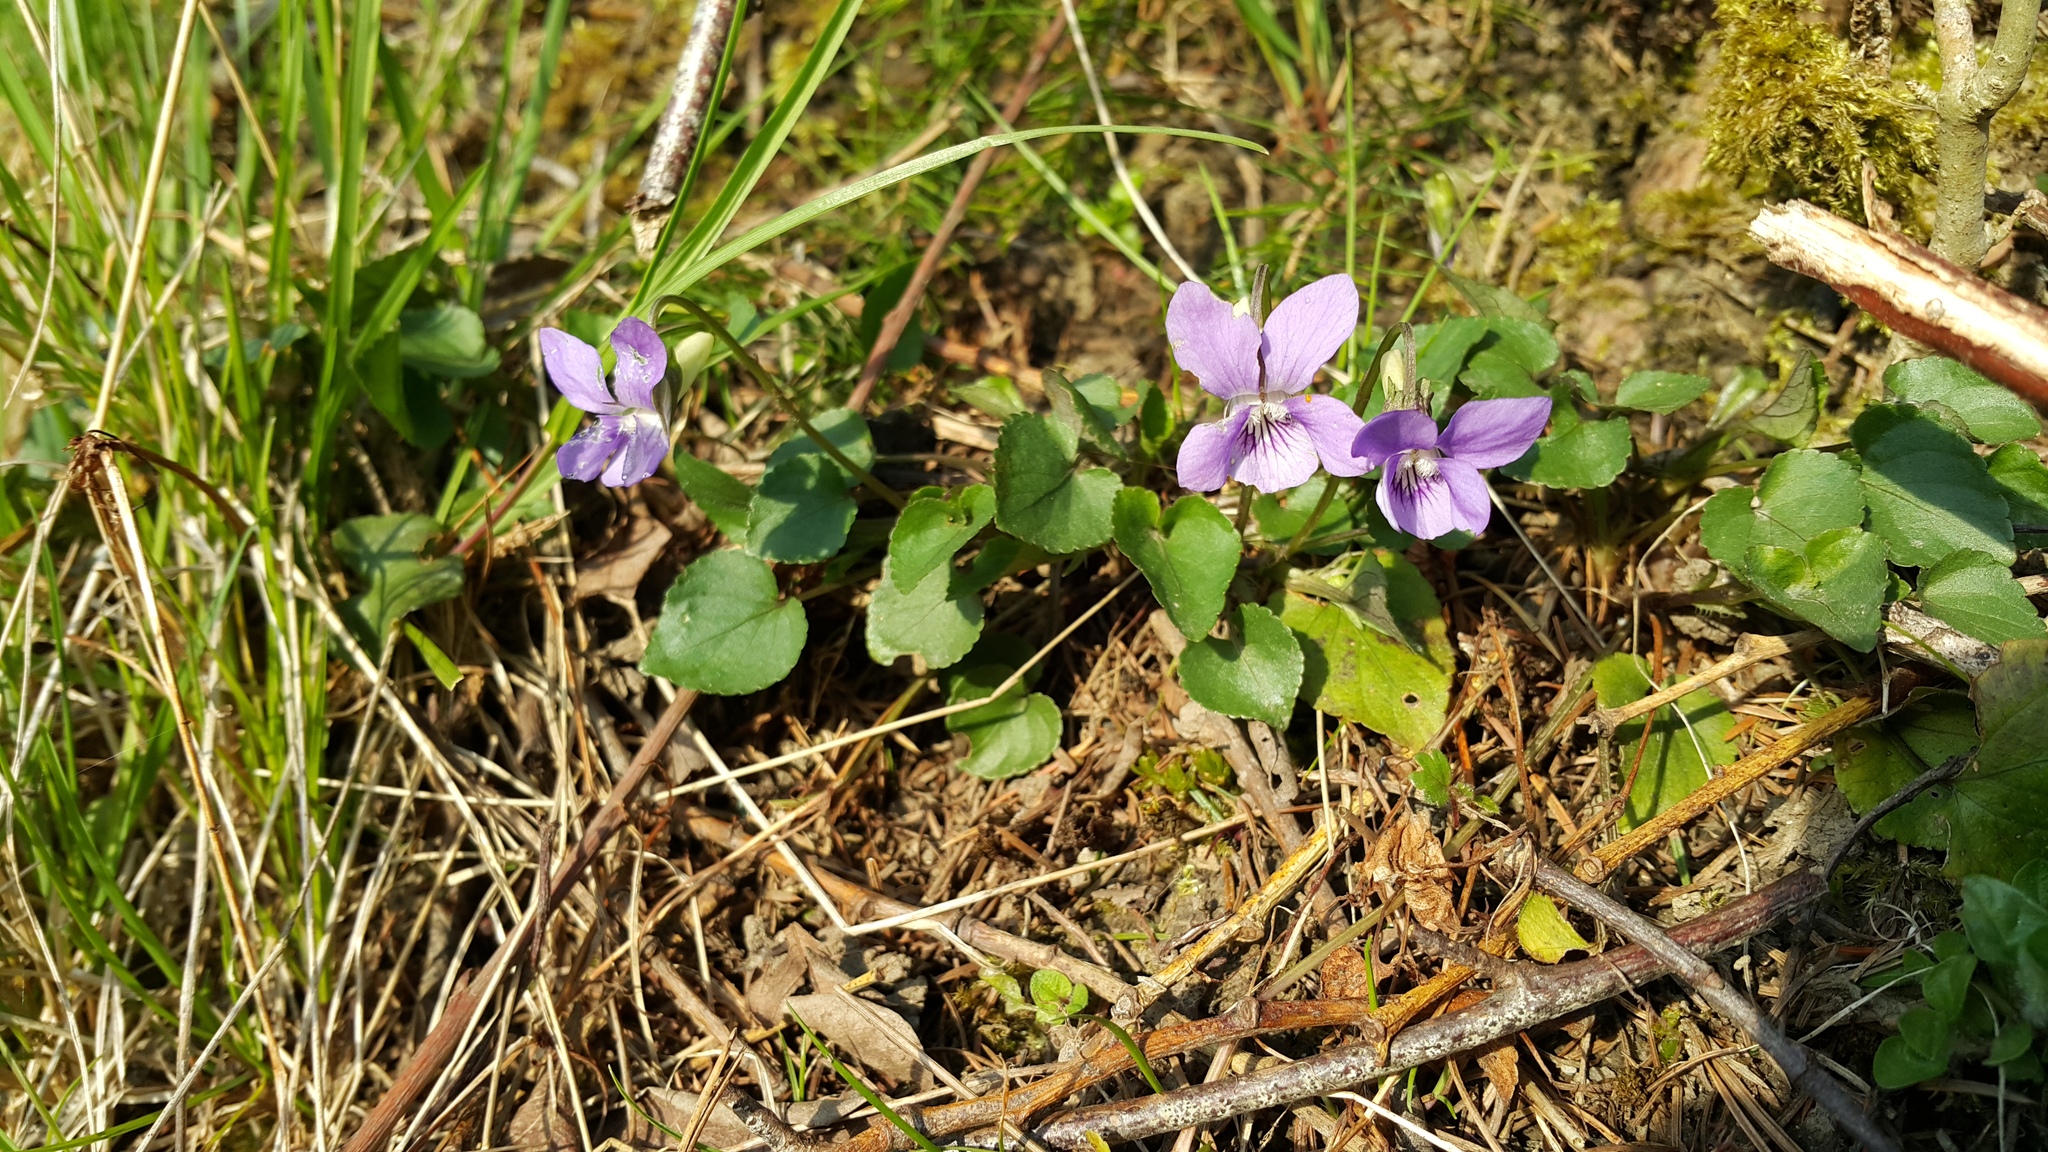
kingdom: Plantae
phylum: Tracheophyta
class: Magnoliopsida
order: Malpighiales
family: Violaceae
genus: Viola
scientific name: Viola riviniana
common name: Common dog-violet
